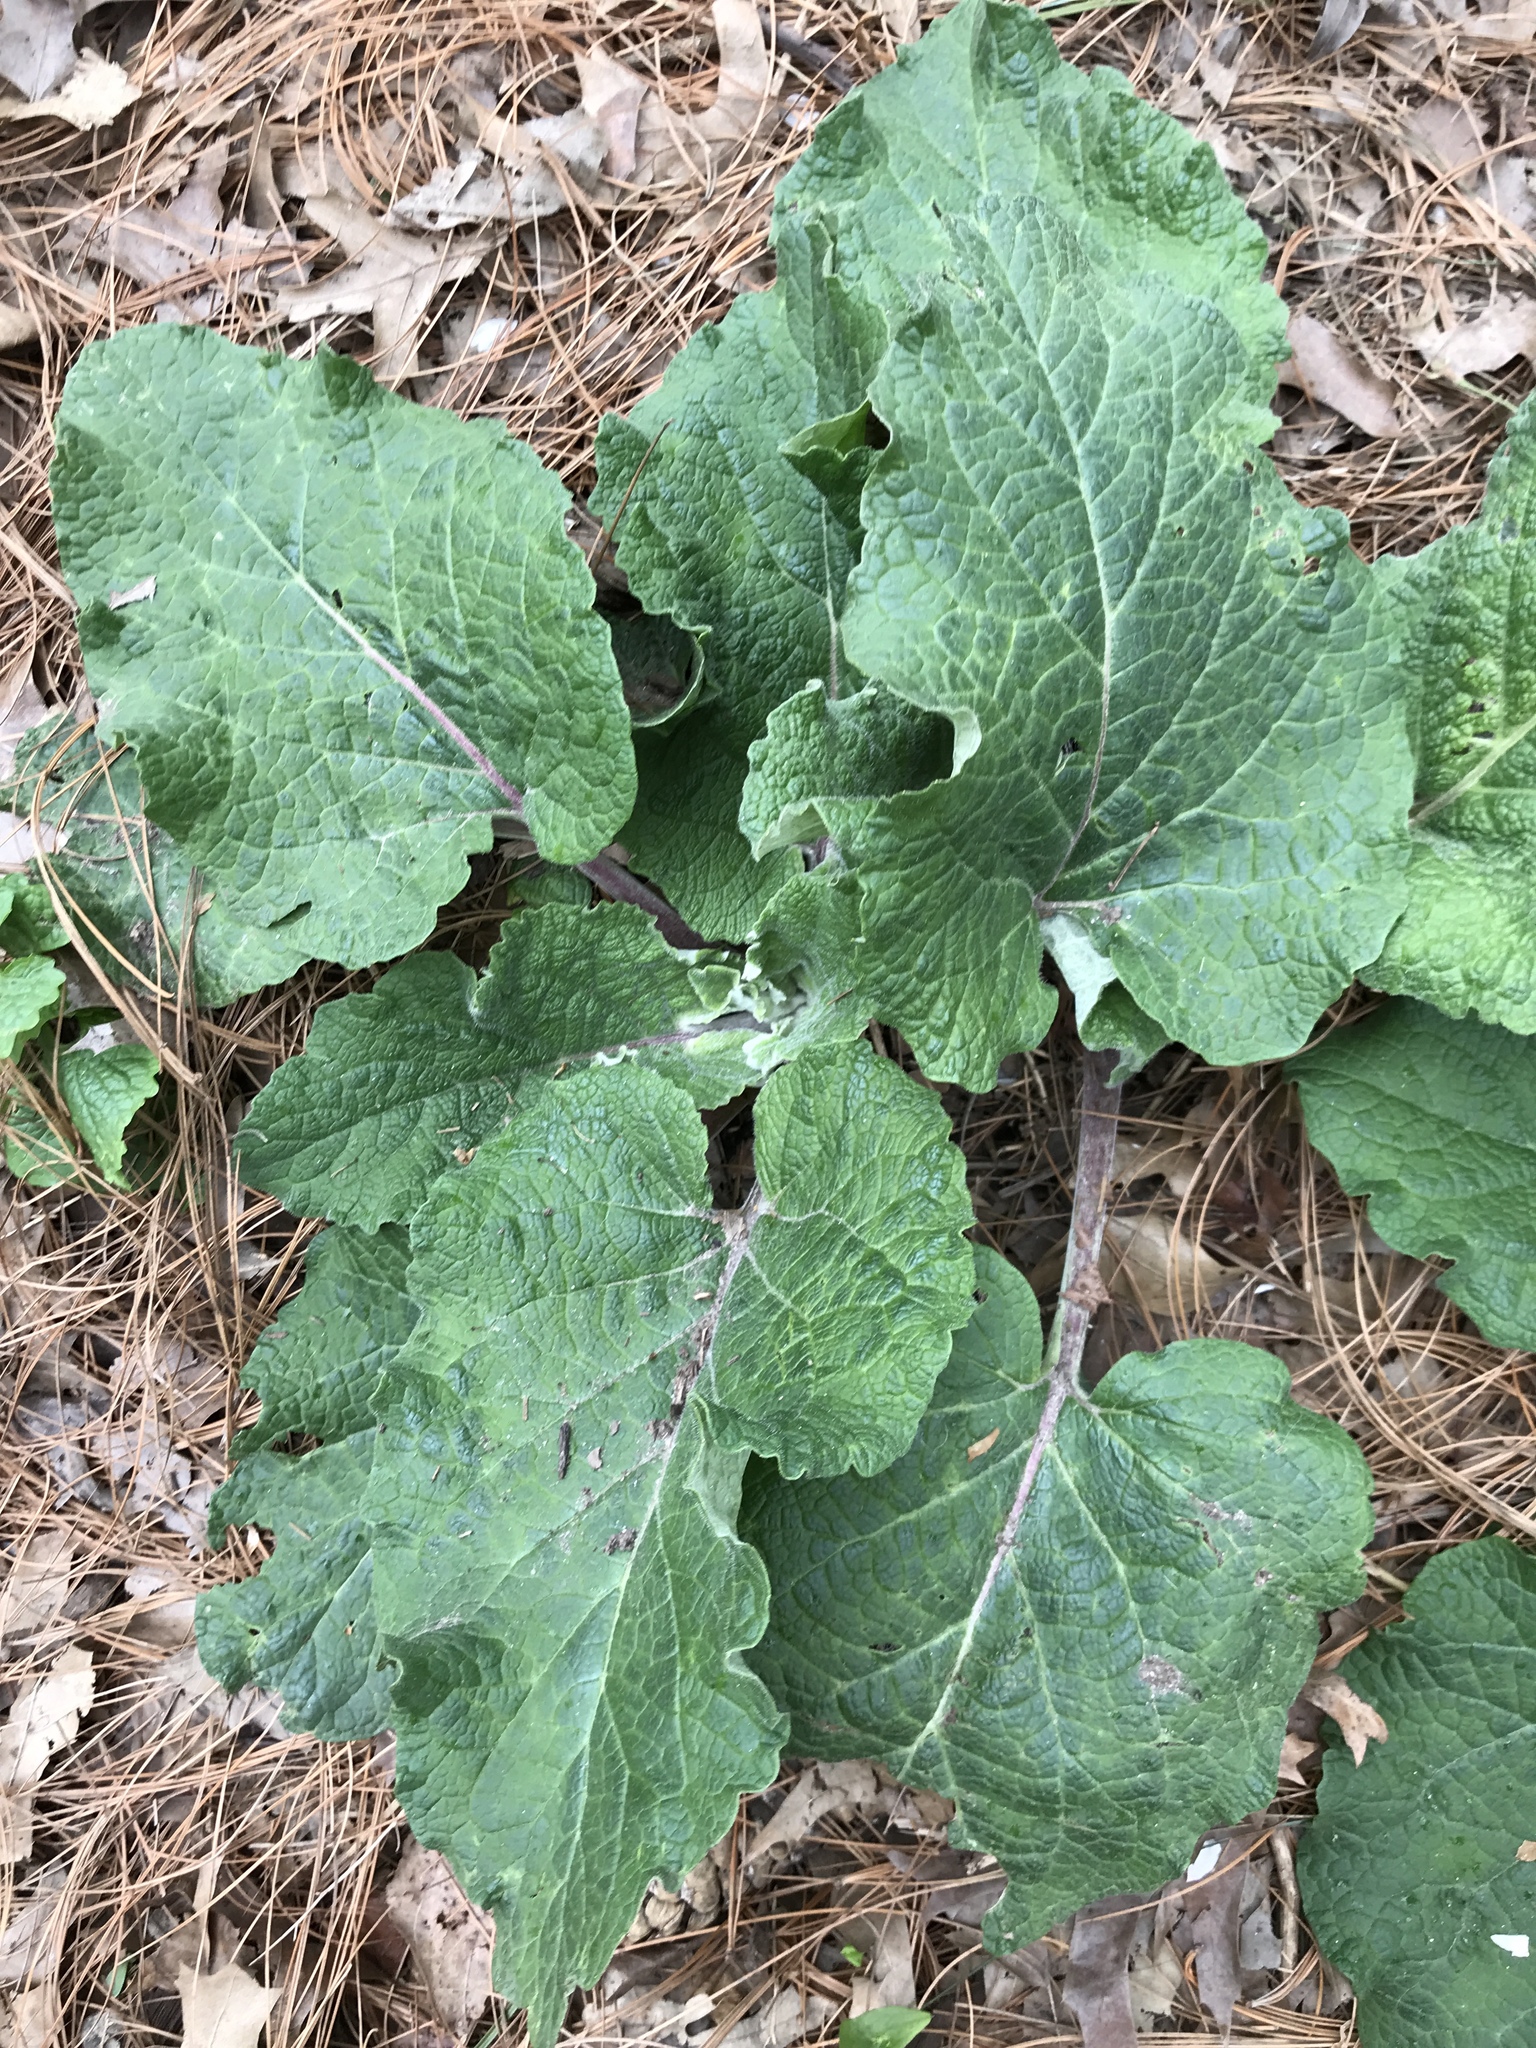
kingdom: Plantae
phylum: Tracheophyta
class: Magnoliopsida
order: Asterales
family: Asteraceae
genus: Arctium
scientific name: Arctium
